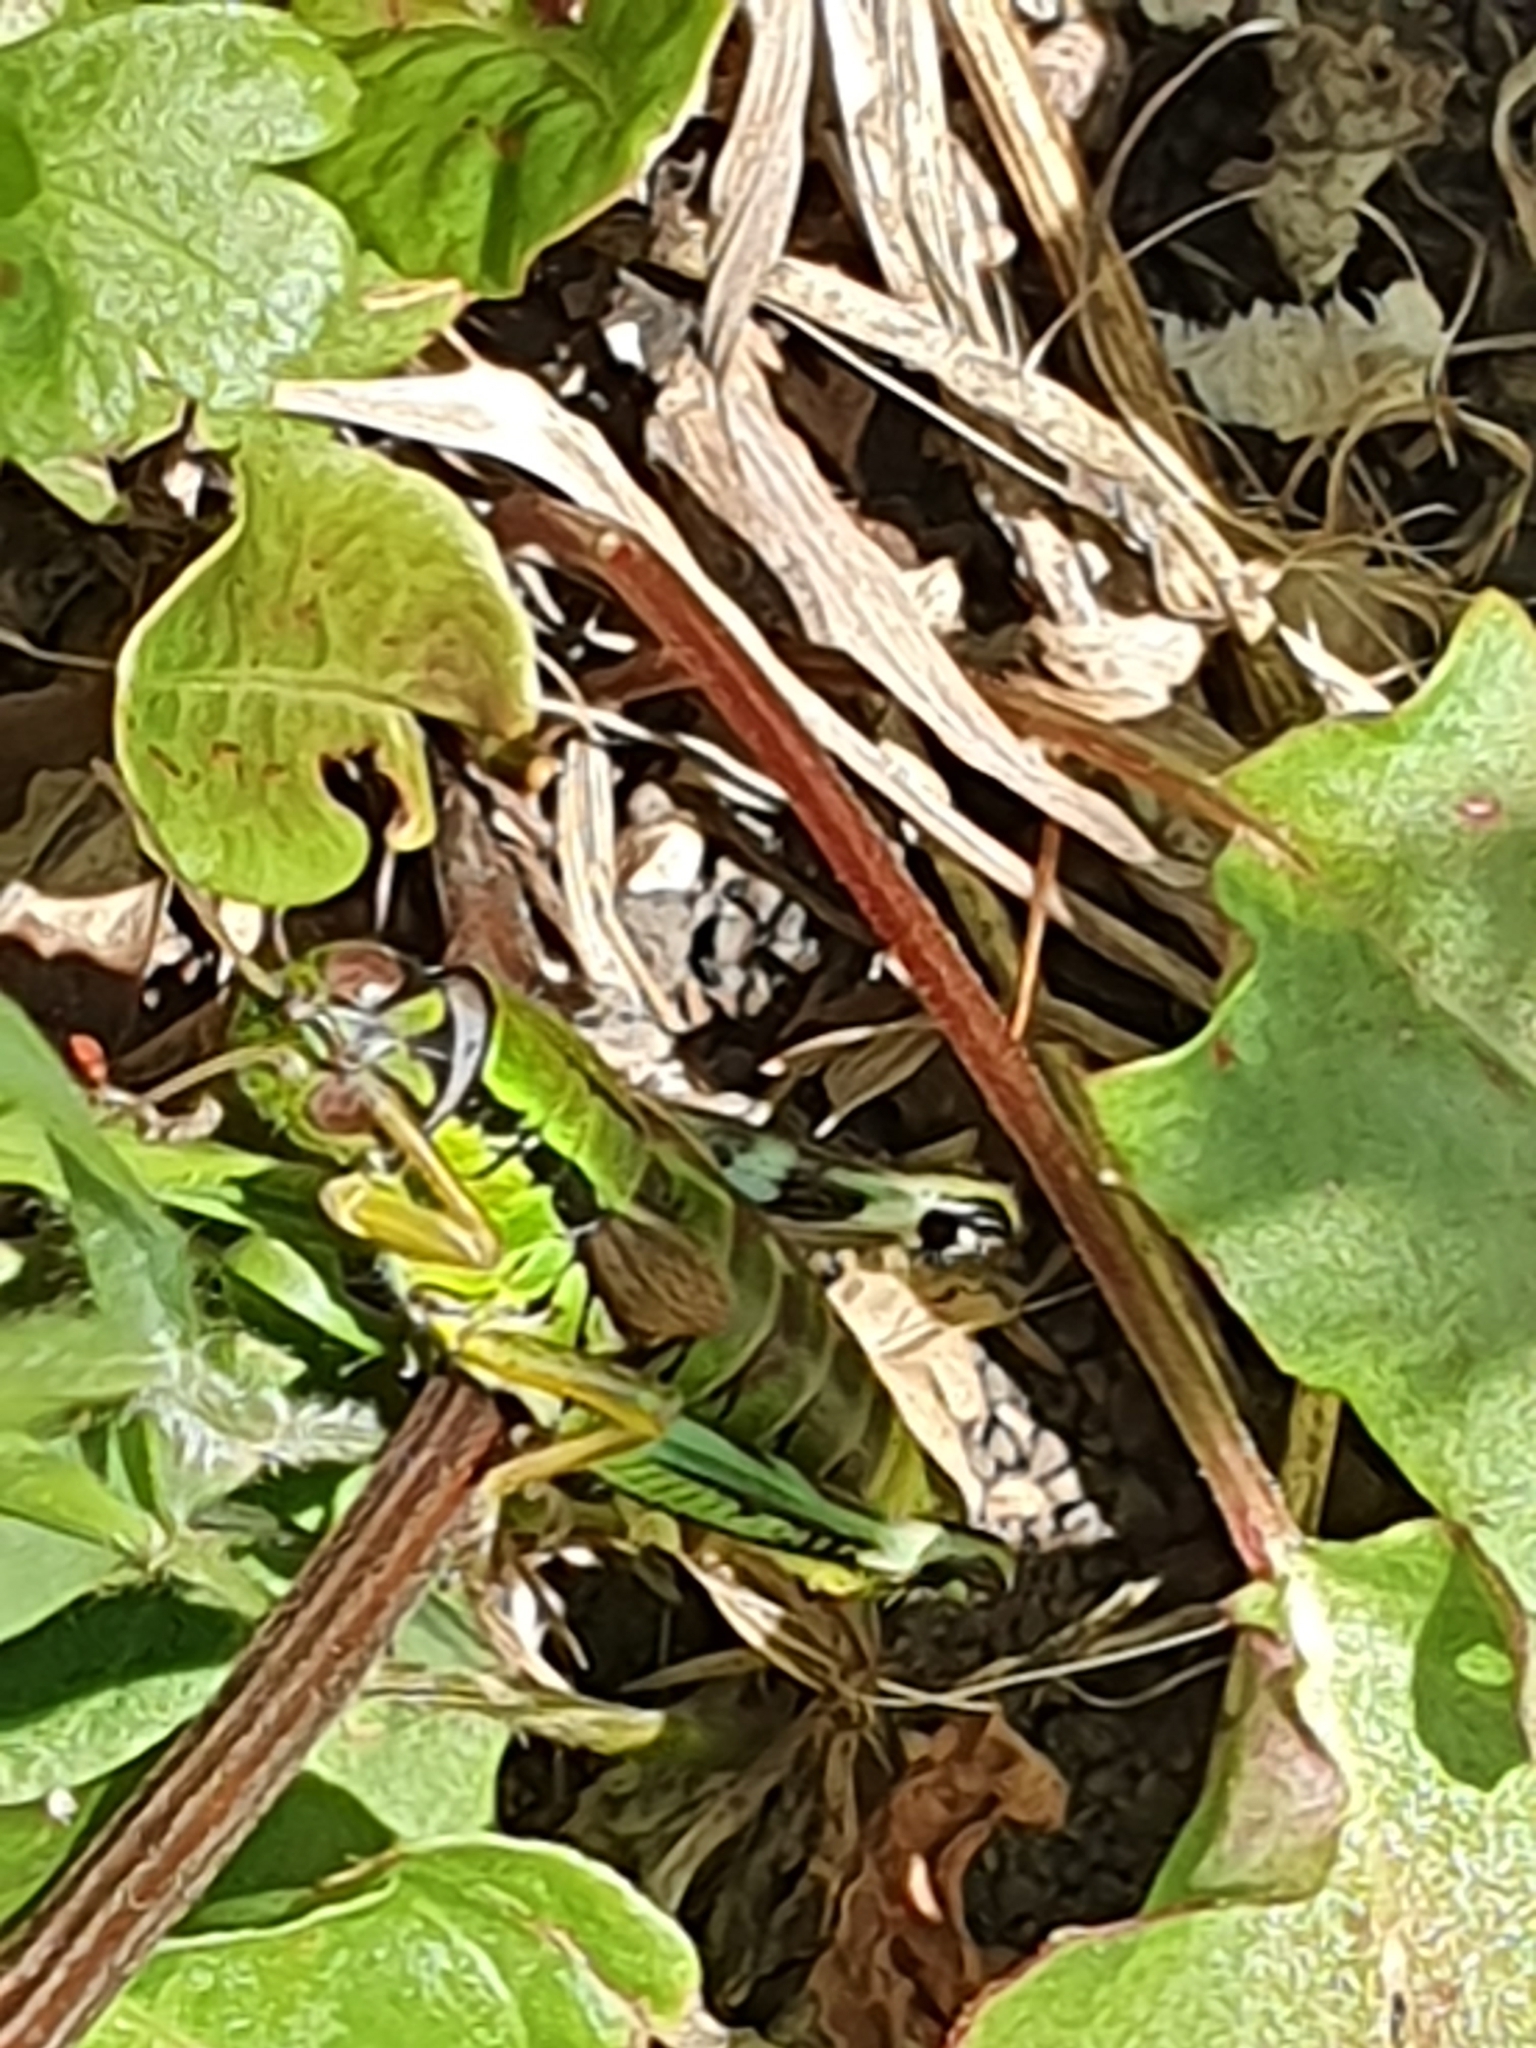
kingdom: Animalia
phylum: Arthropoda
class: Insecta
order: Orthoptera
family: Acrididae
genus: Miramella
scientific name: Miramella alpina
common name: Green mountain grasshopper
